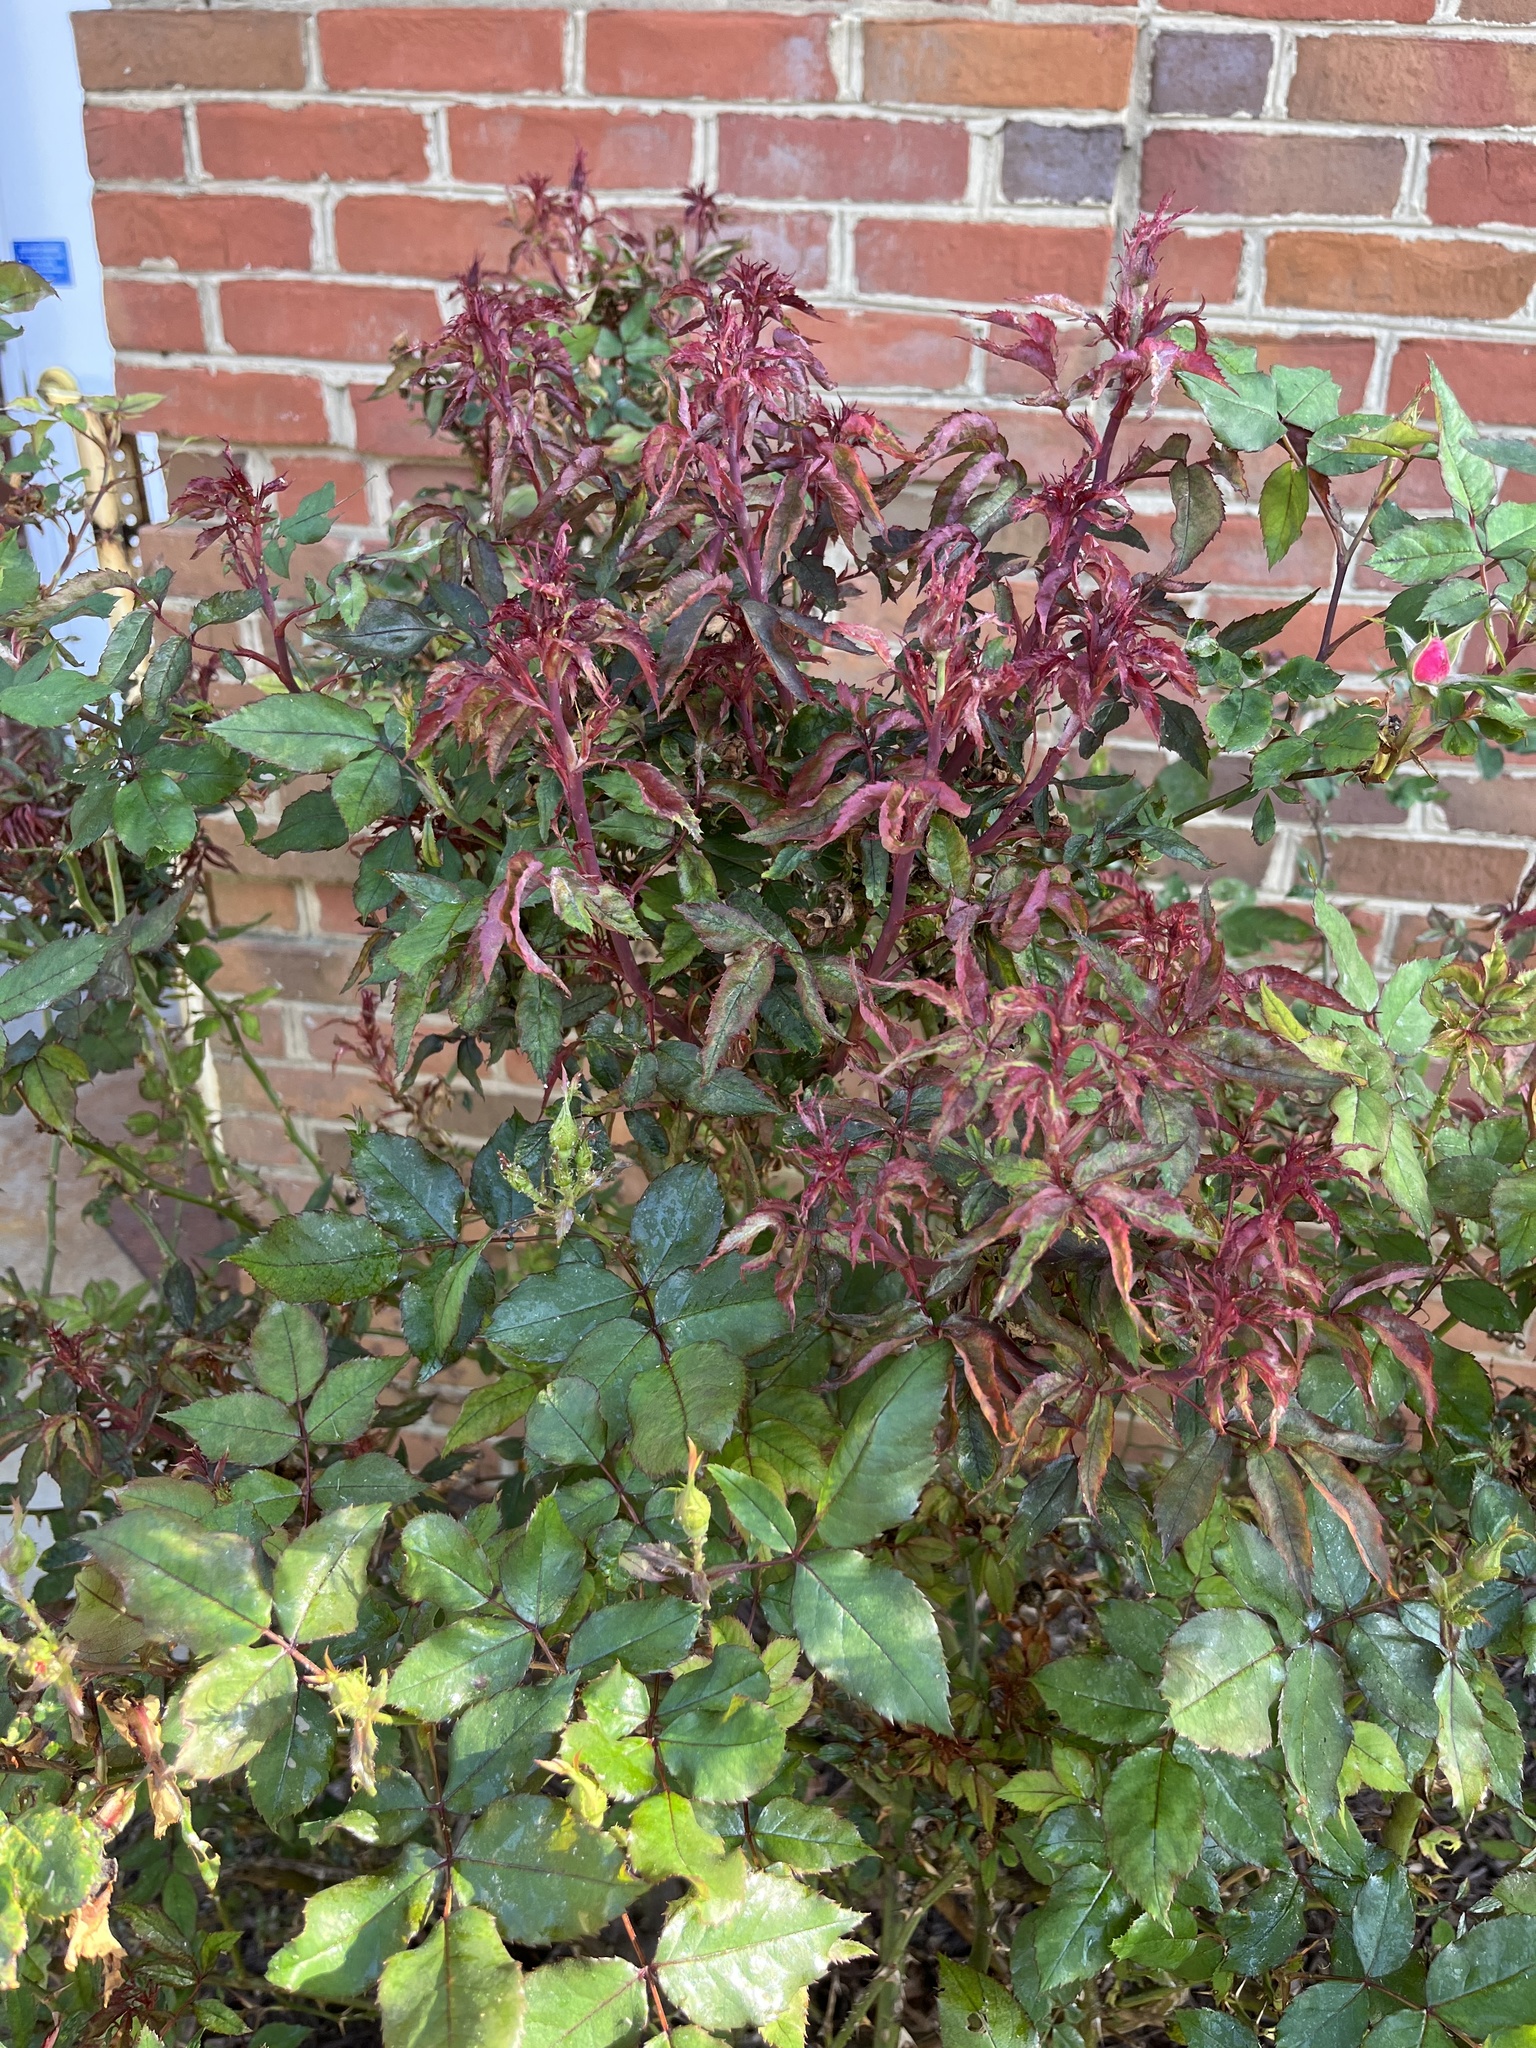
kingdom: Viruses
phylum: Negarnaviricota
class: Ellioviricetes
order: Bunyavirales
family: Fimoviridae
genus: Emaravirus
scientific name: Emaravirus rosae
